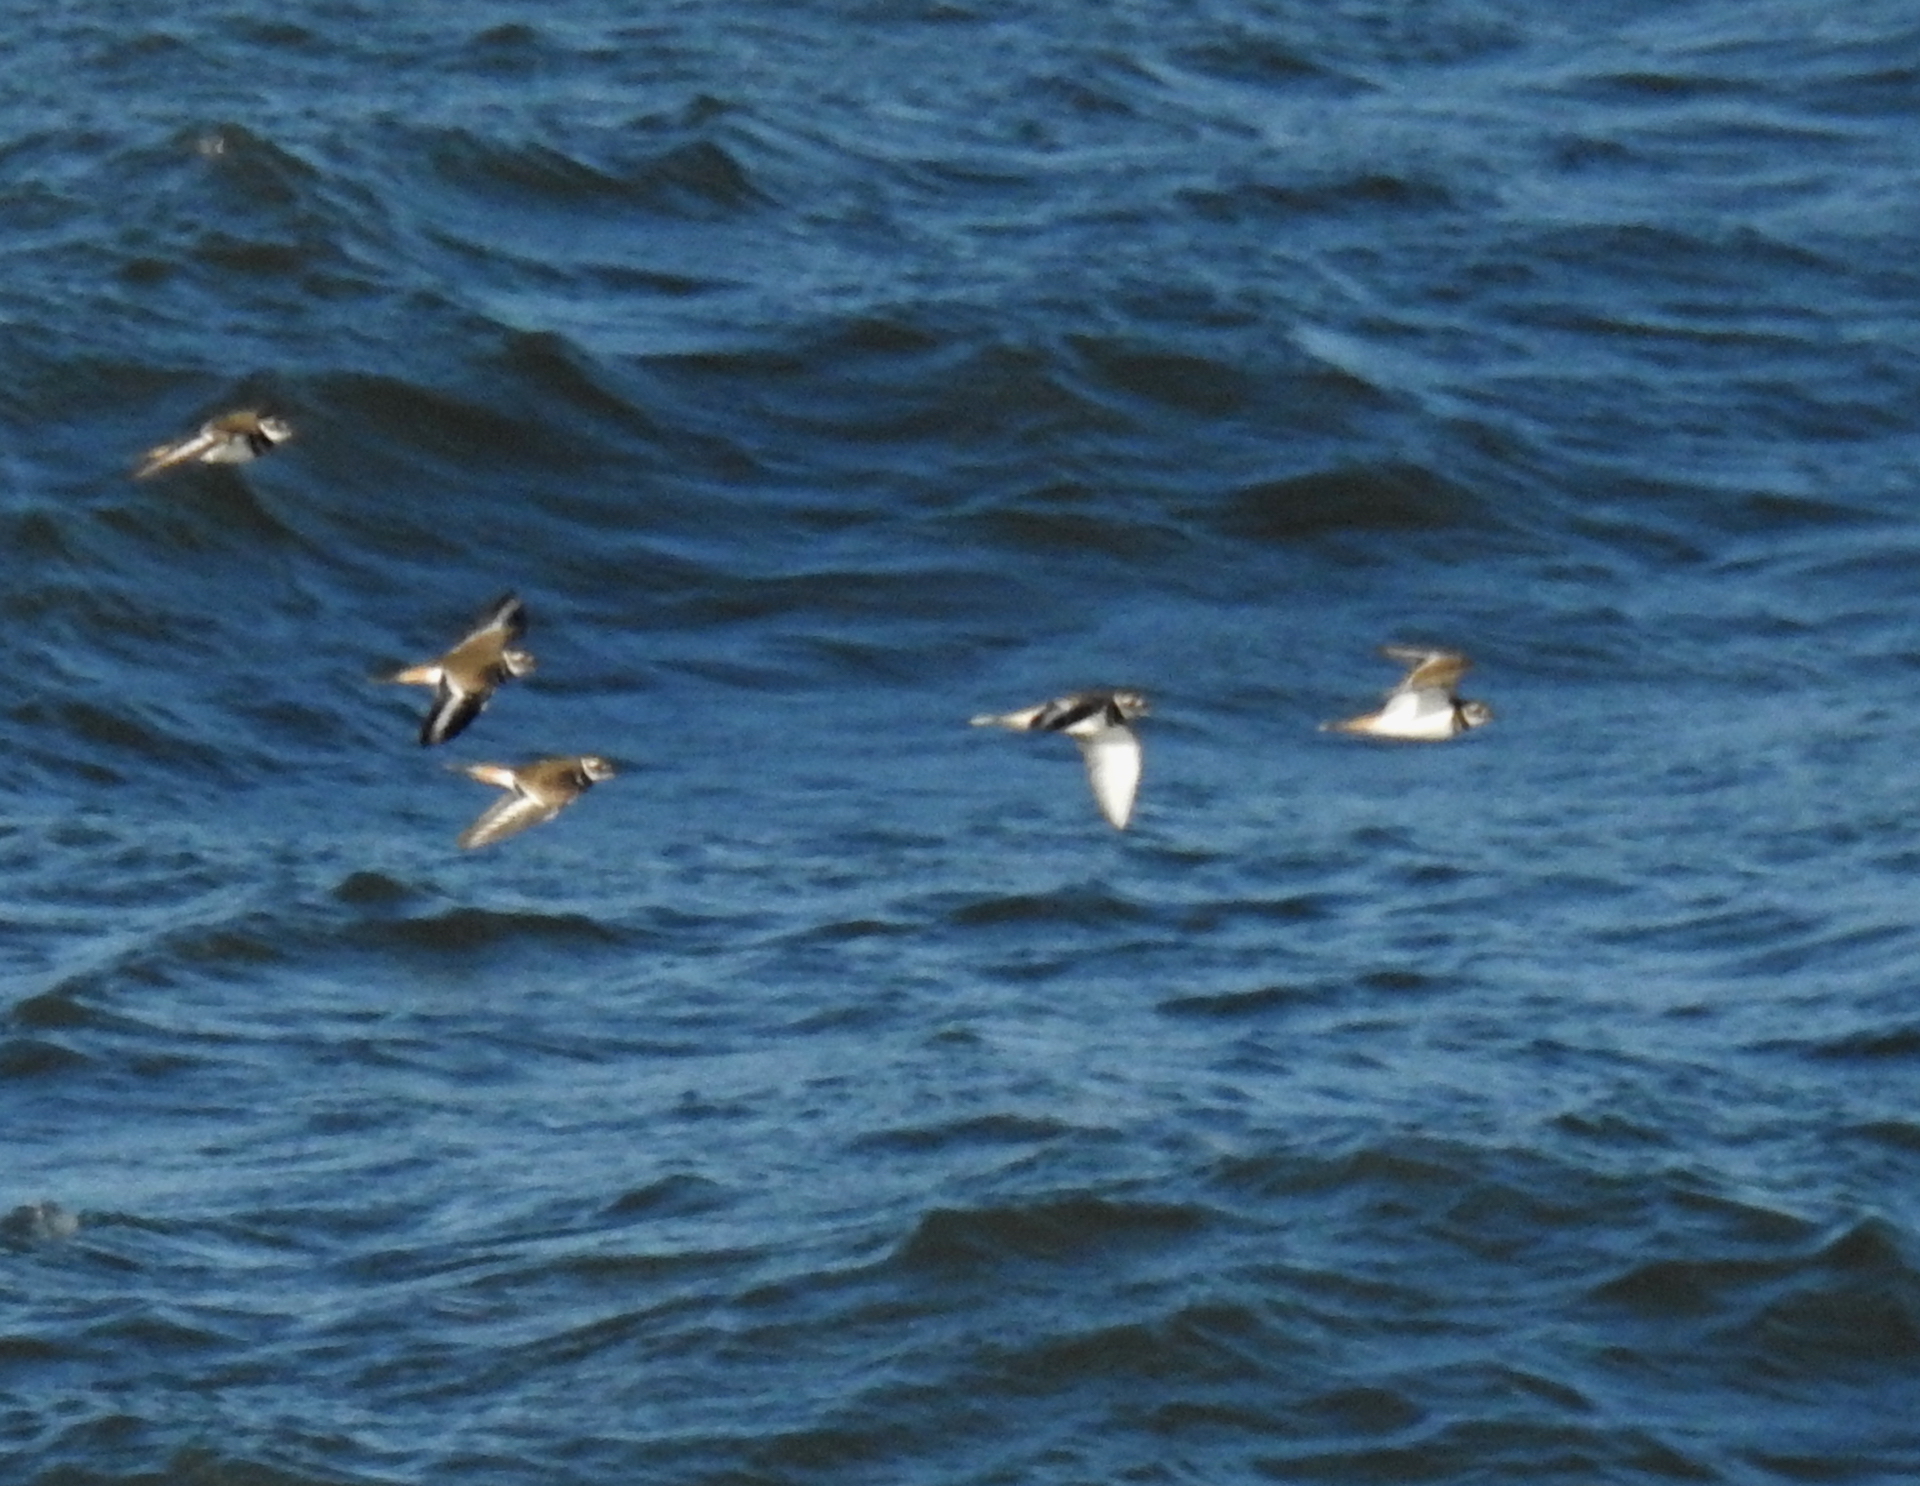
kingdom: Animalia
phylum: Chordata
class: Aves
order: Charadriiformes
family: Charadriidae
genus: Charadrius
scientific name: Charadrius vociferus
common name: Killdeer
